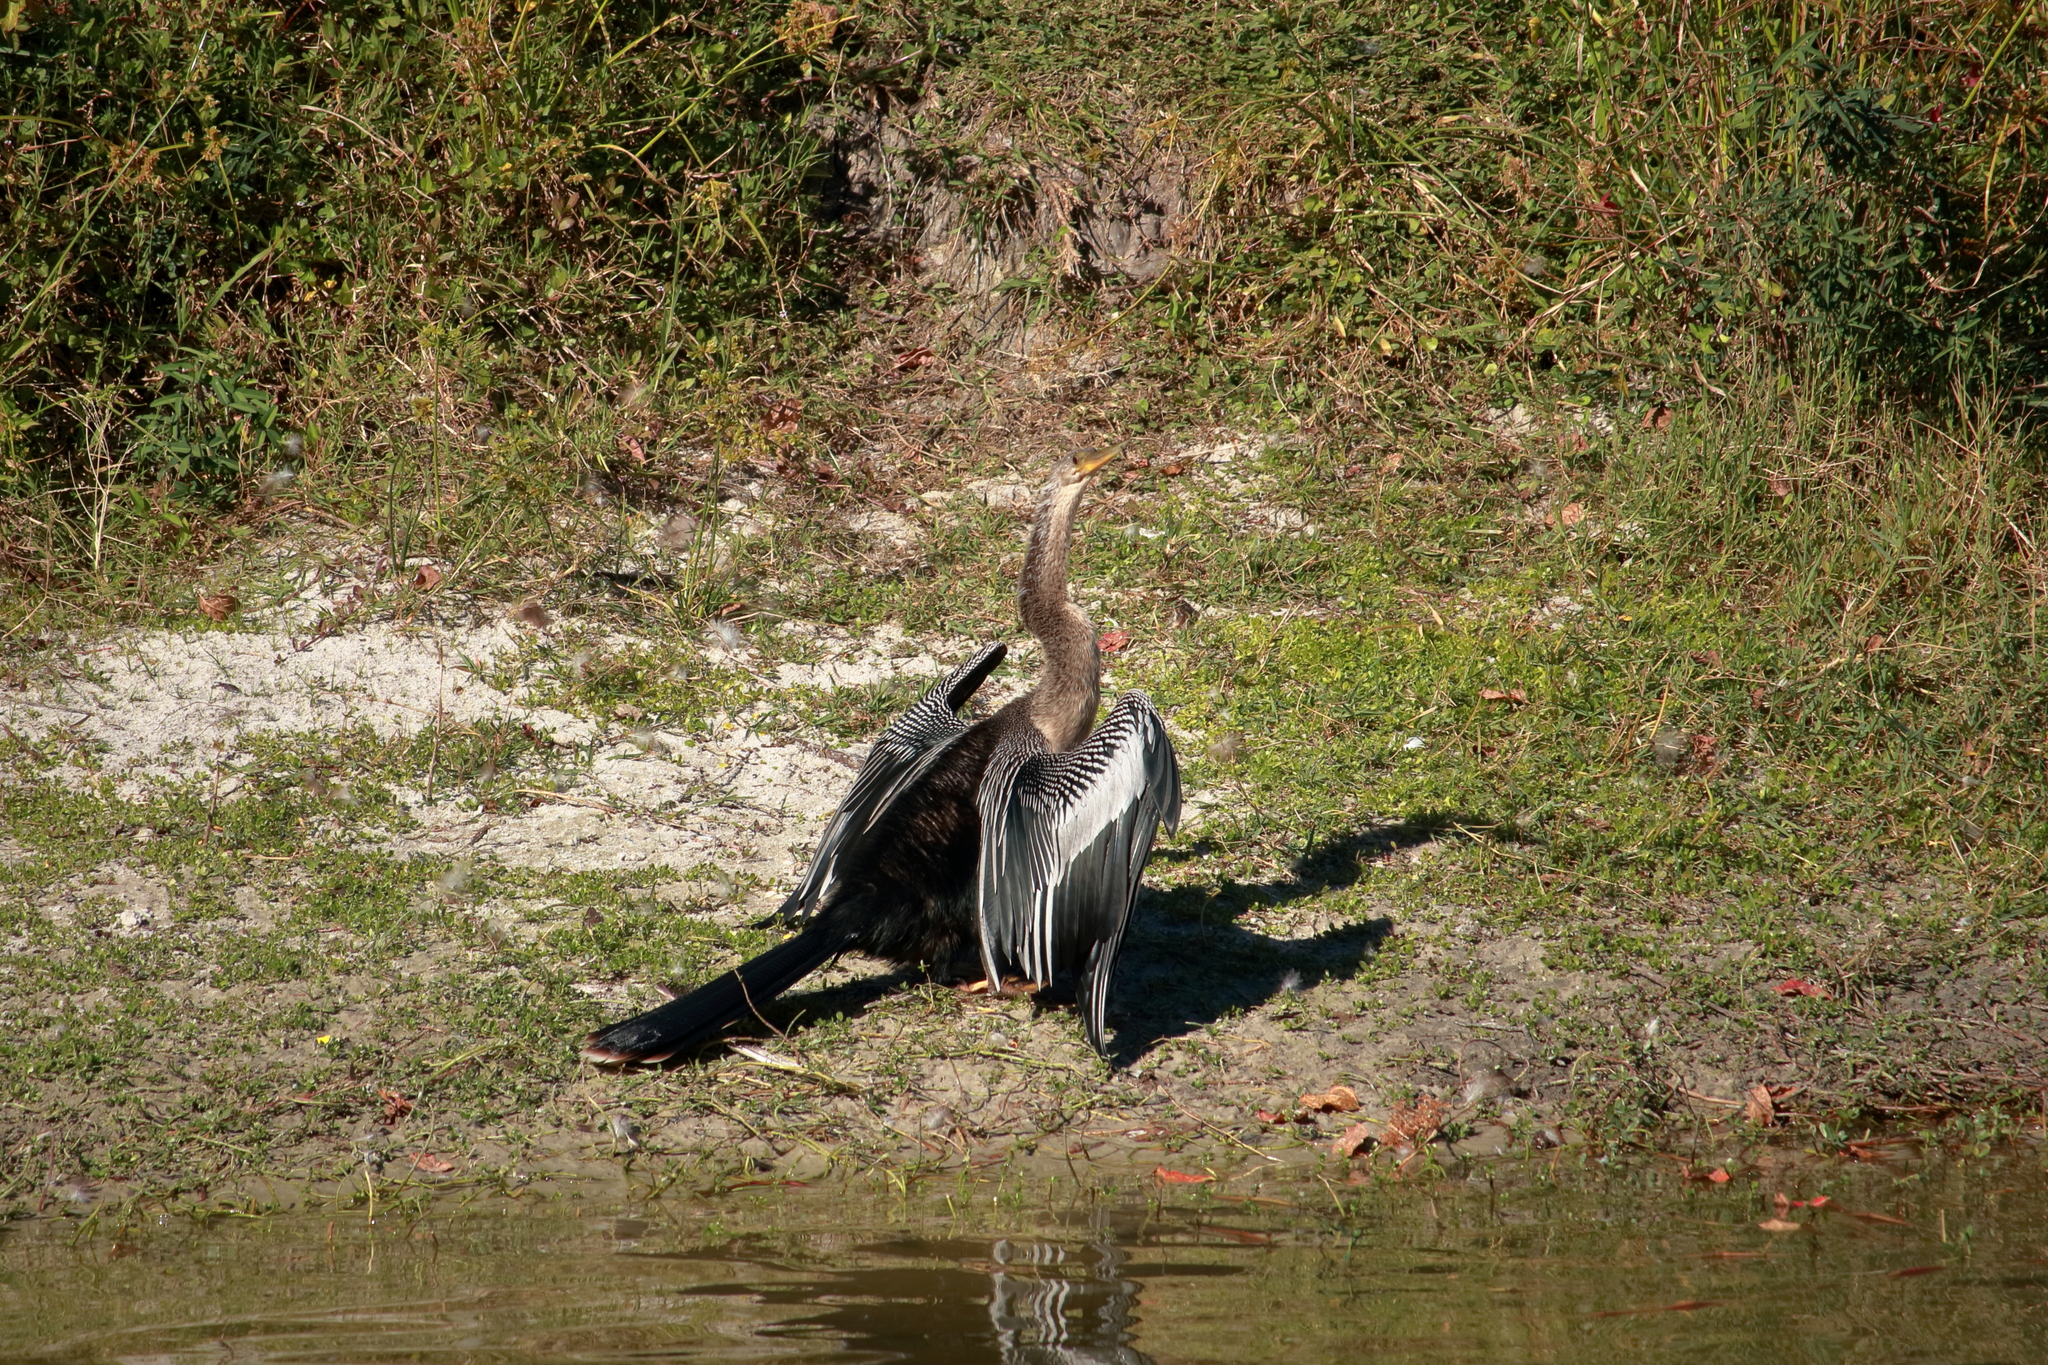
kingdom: Animalia
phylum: Chordata
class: Aves
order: Suliformes
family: Anhingidae
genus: Anhinga
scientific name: Anhinga anhinga
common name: Anhinga
